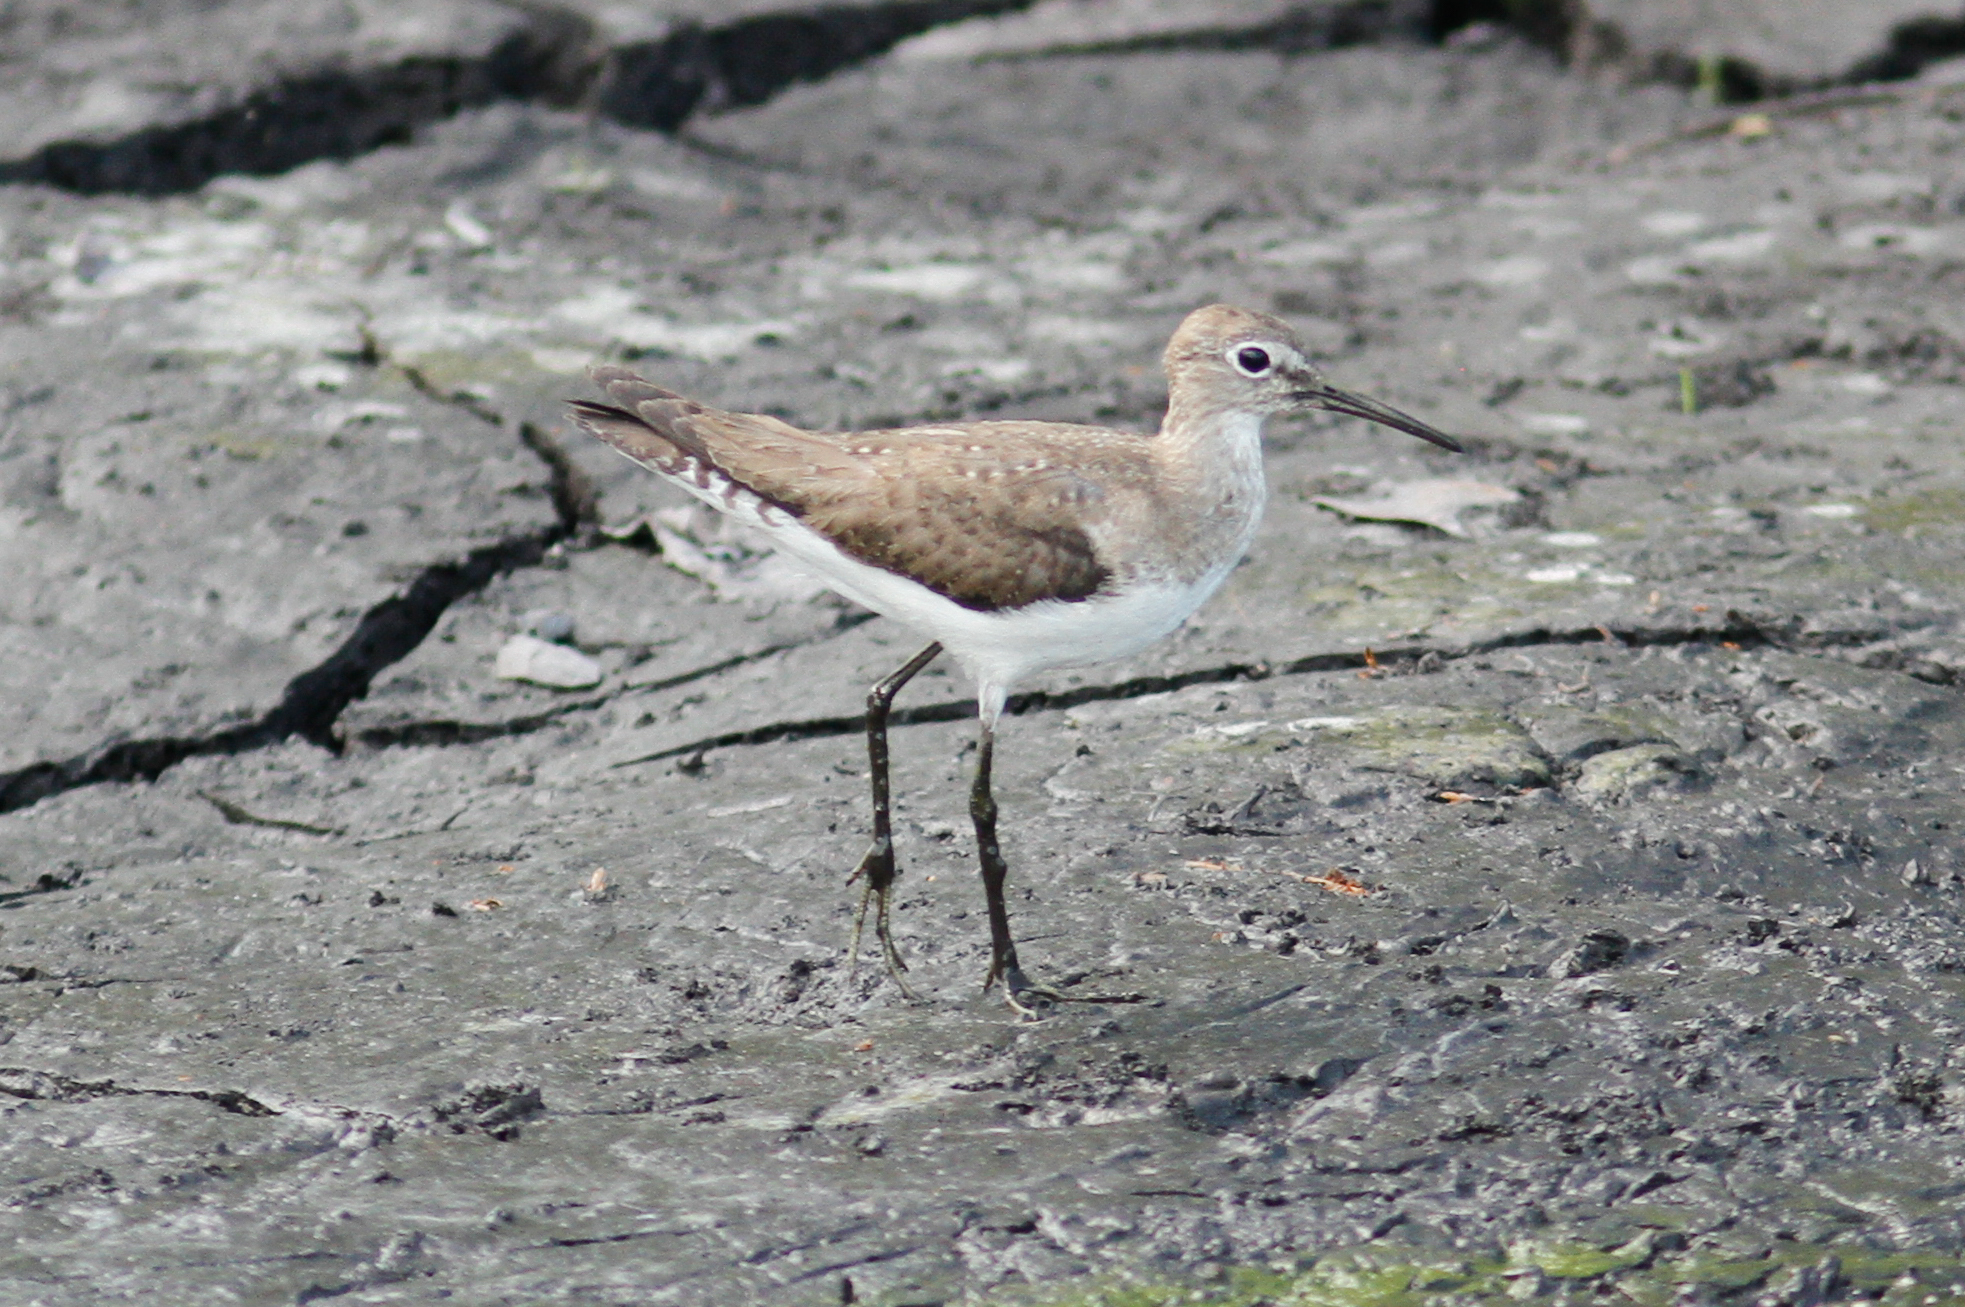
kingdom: Animalia
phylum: Chordata
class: Aves
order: Charadriiformes
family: Scolopacidae
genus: Tringa
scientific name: Tringa solitaria
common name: Solitary sandpiper
